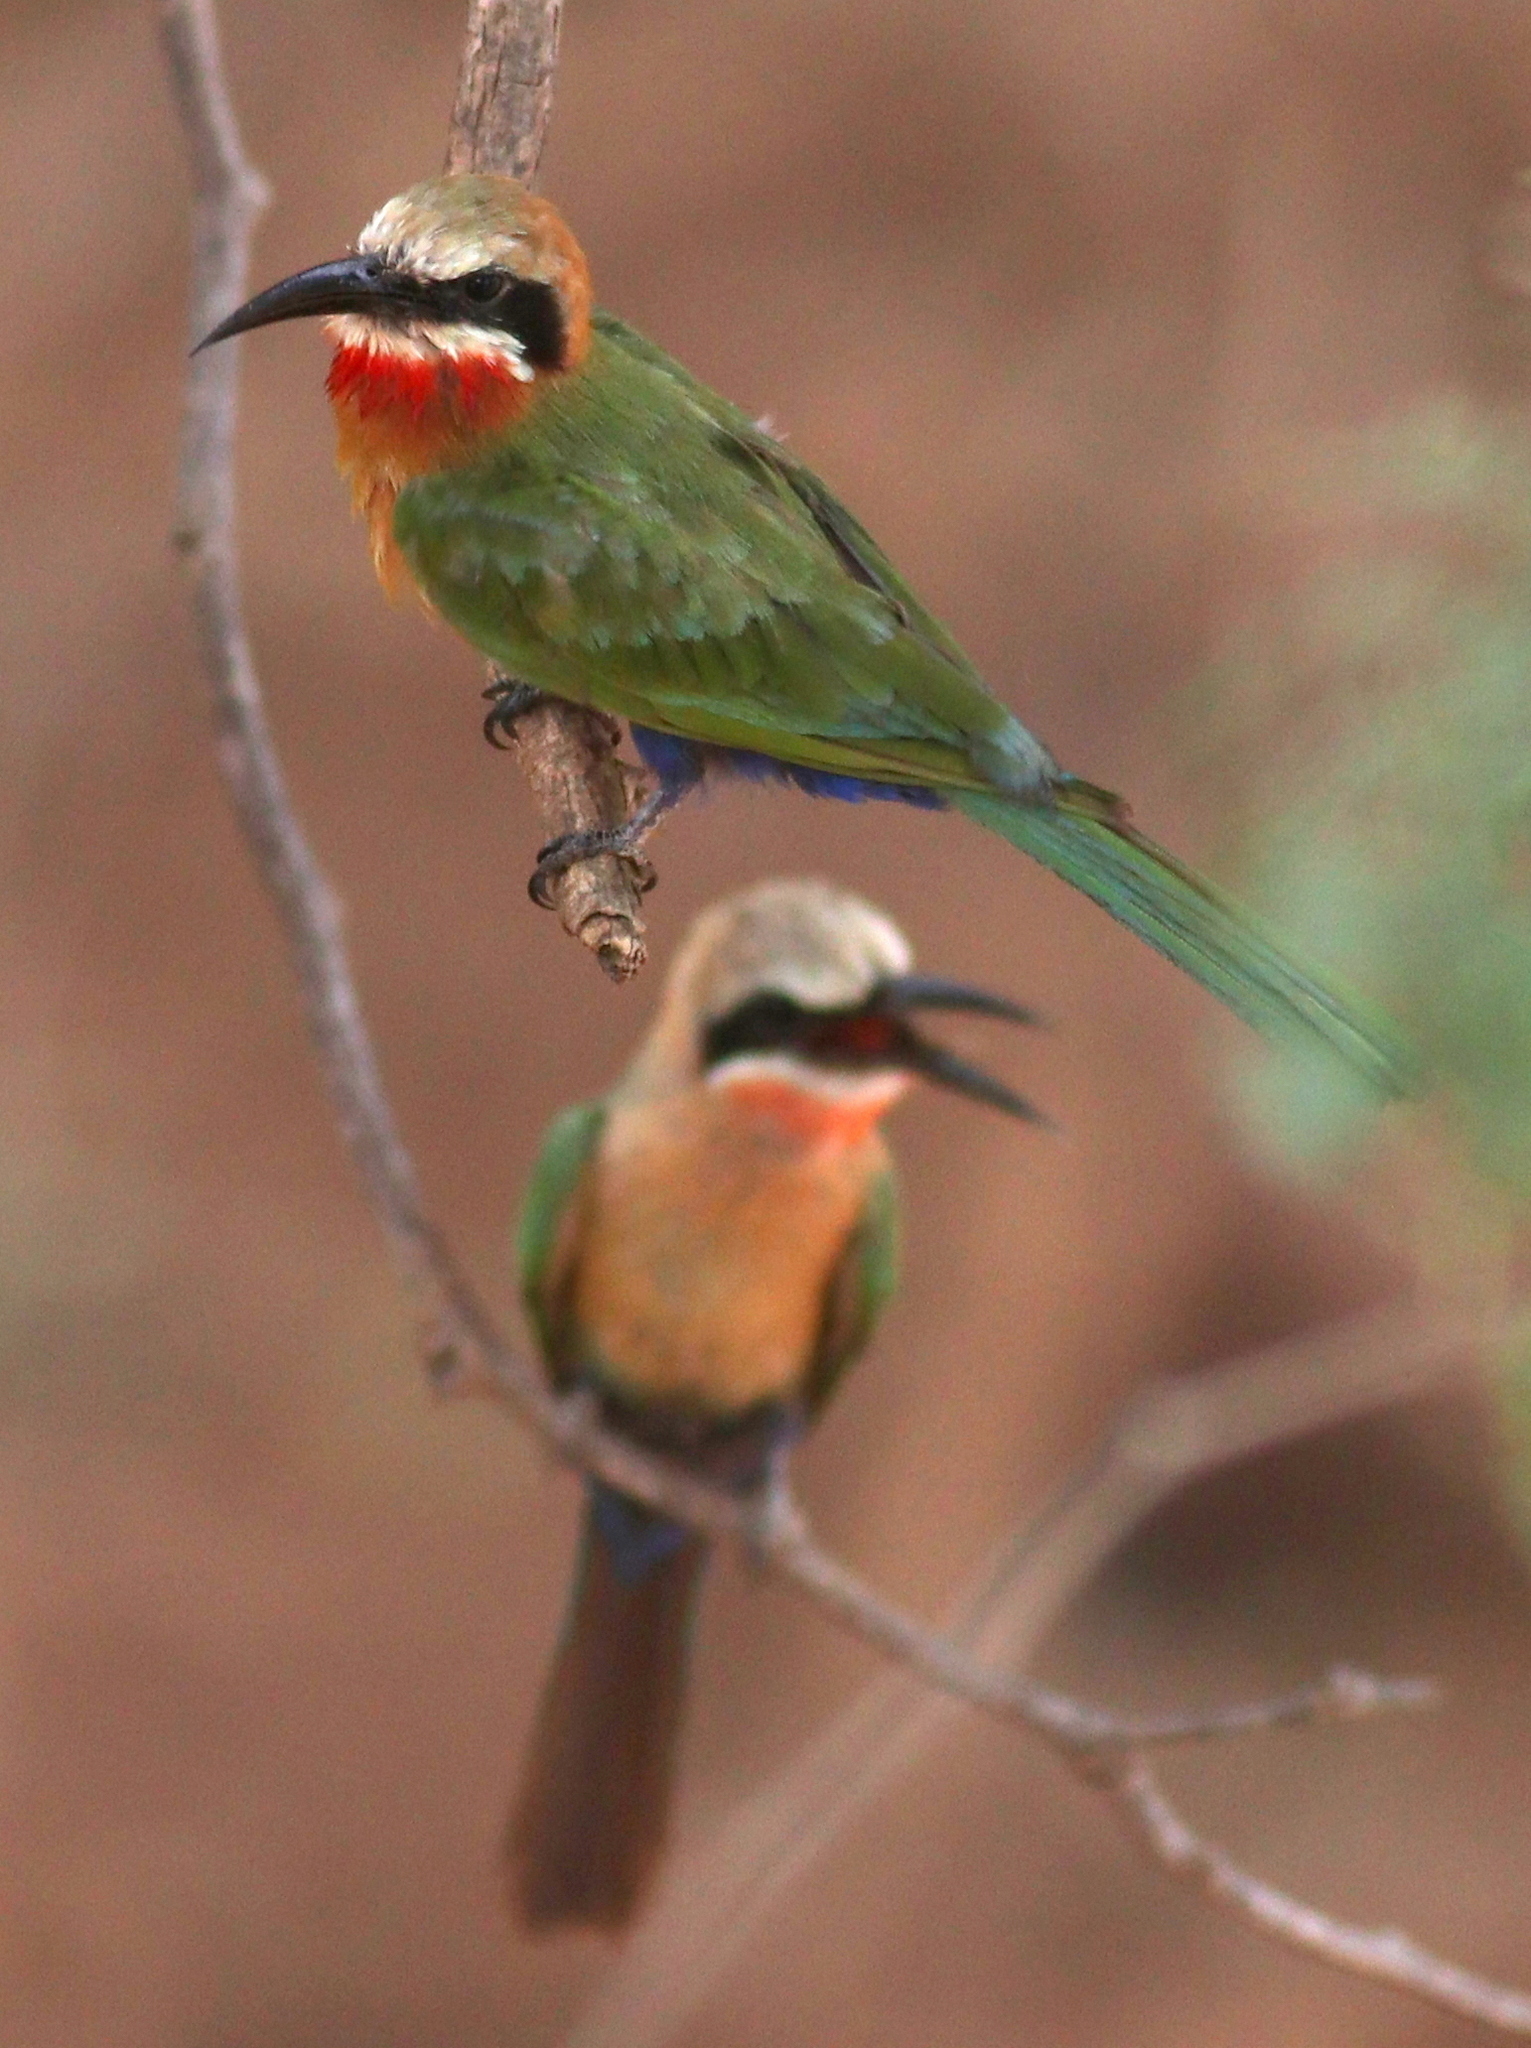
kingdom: Animalia
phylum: Chordata
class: Aves
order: Coraciiformes
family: Meropidae
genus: Merops
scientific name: Merops bullockoides
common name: White-fronted bee-eater
